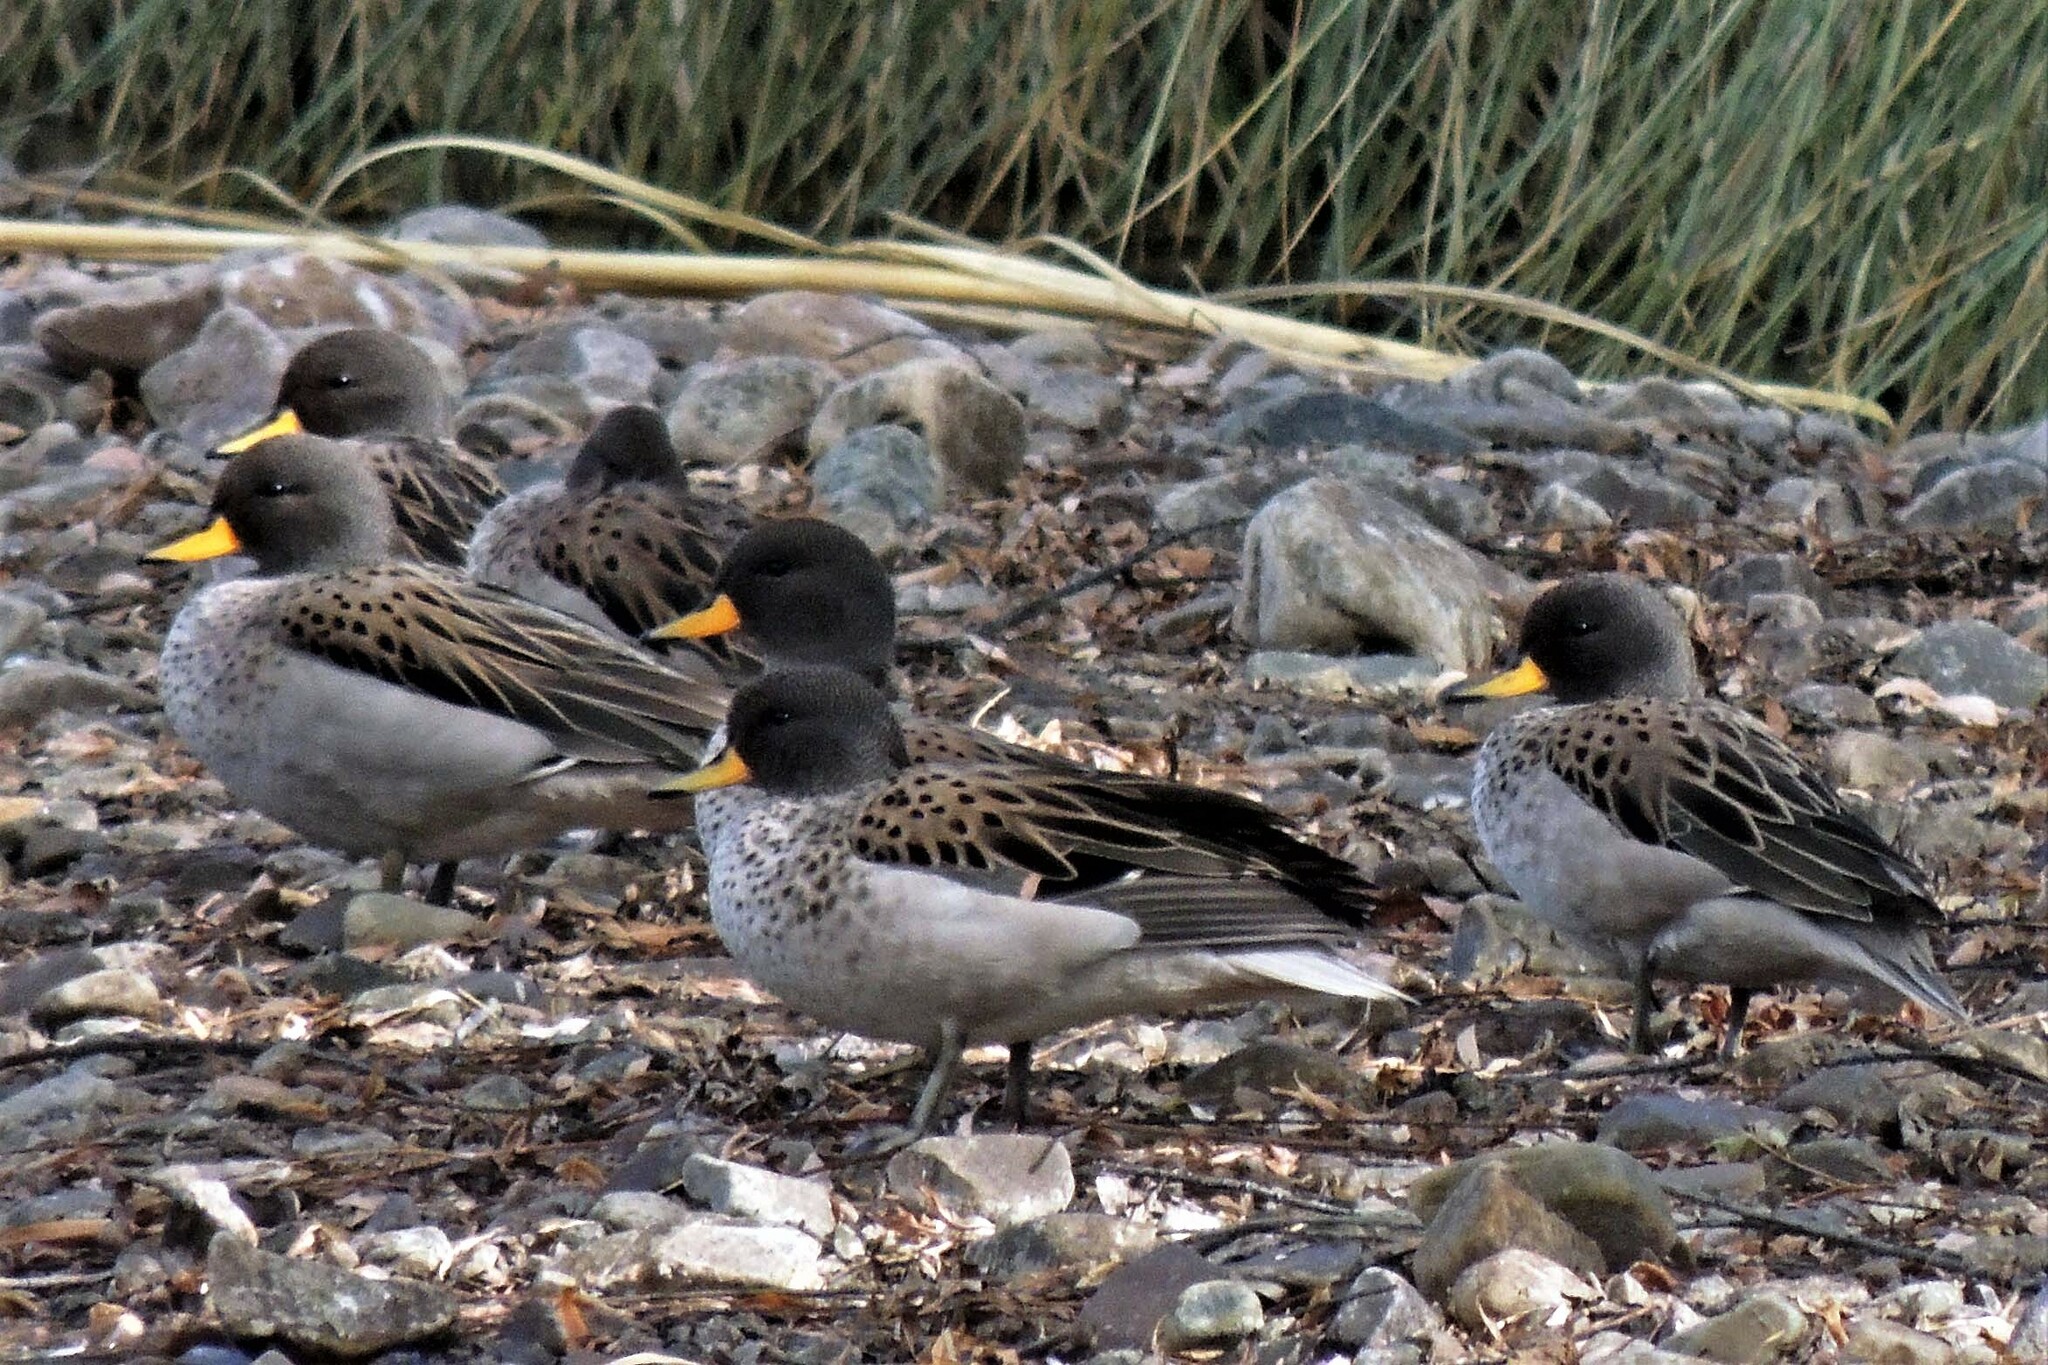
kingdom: Animalia
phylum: Chordata
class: Aves
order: Anseriformes
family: Anatidae
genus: Anas
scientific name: Anas flavirostris
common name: Yellow-billed teal
